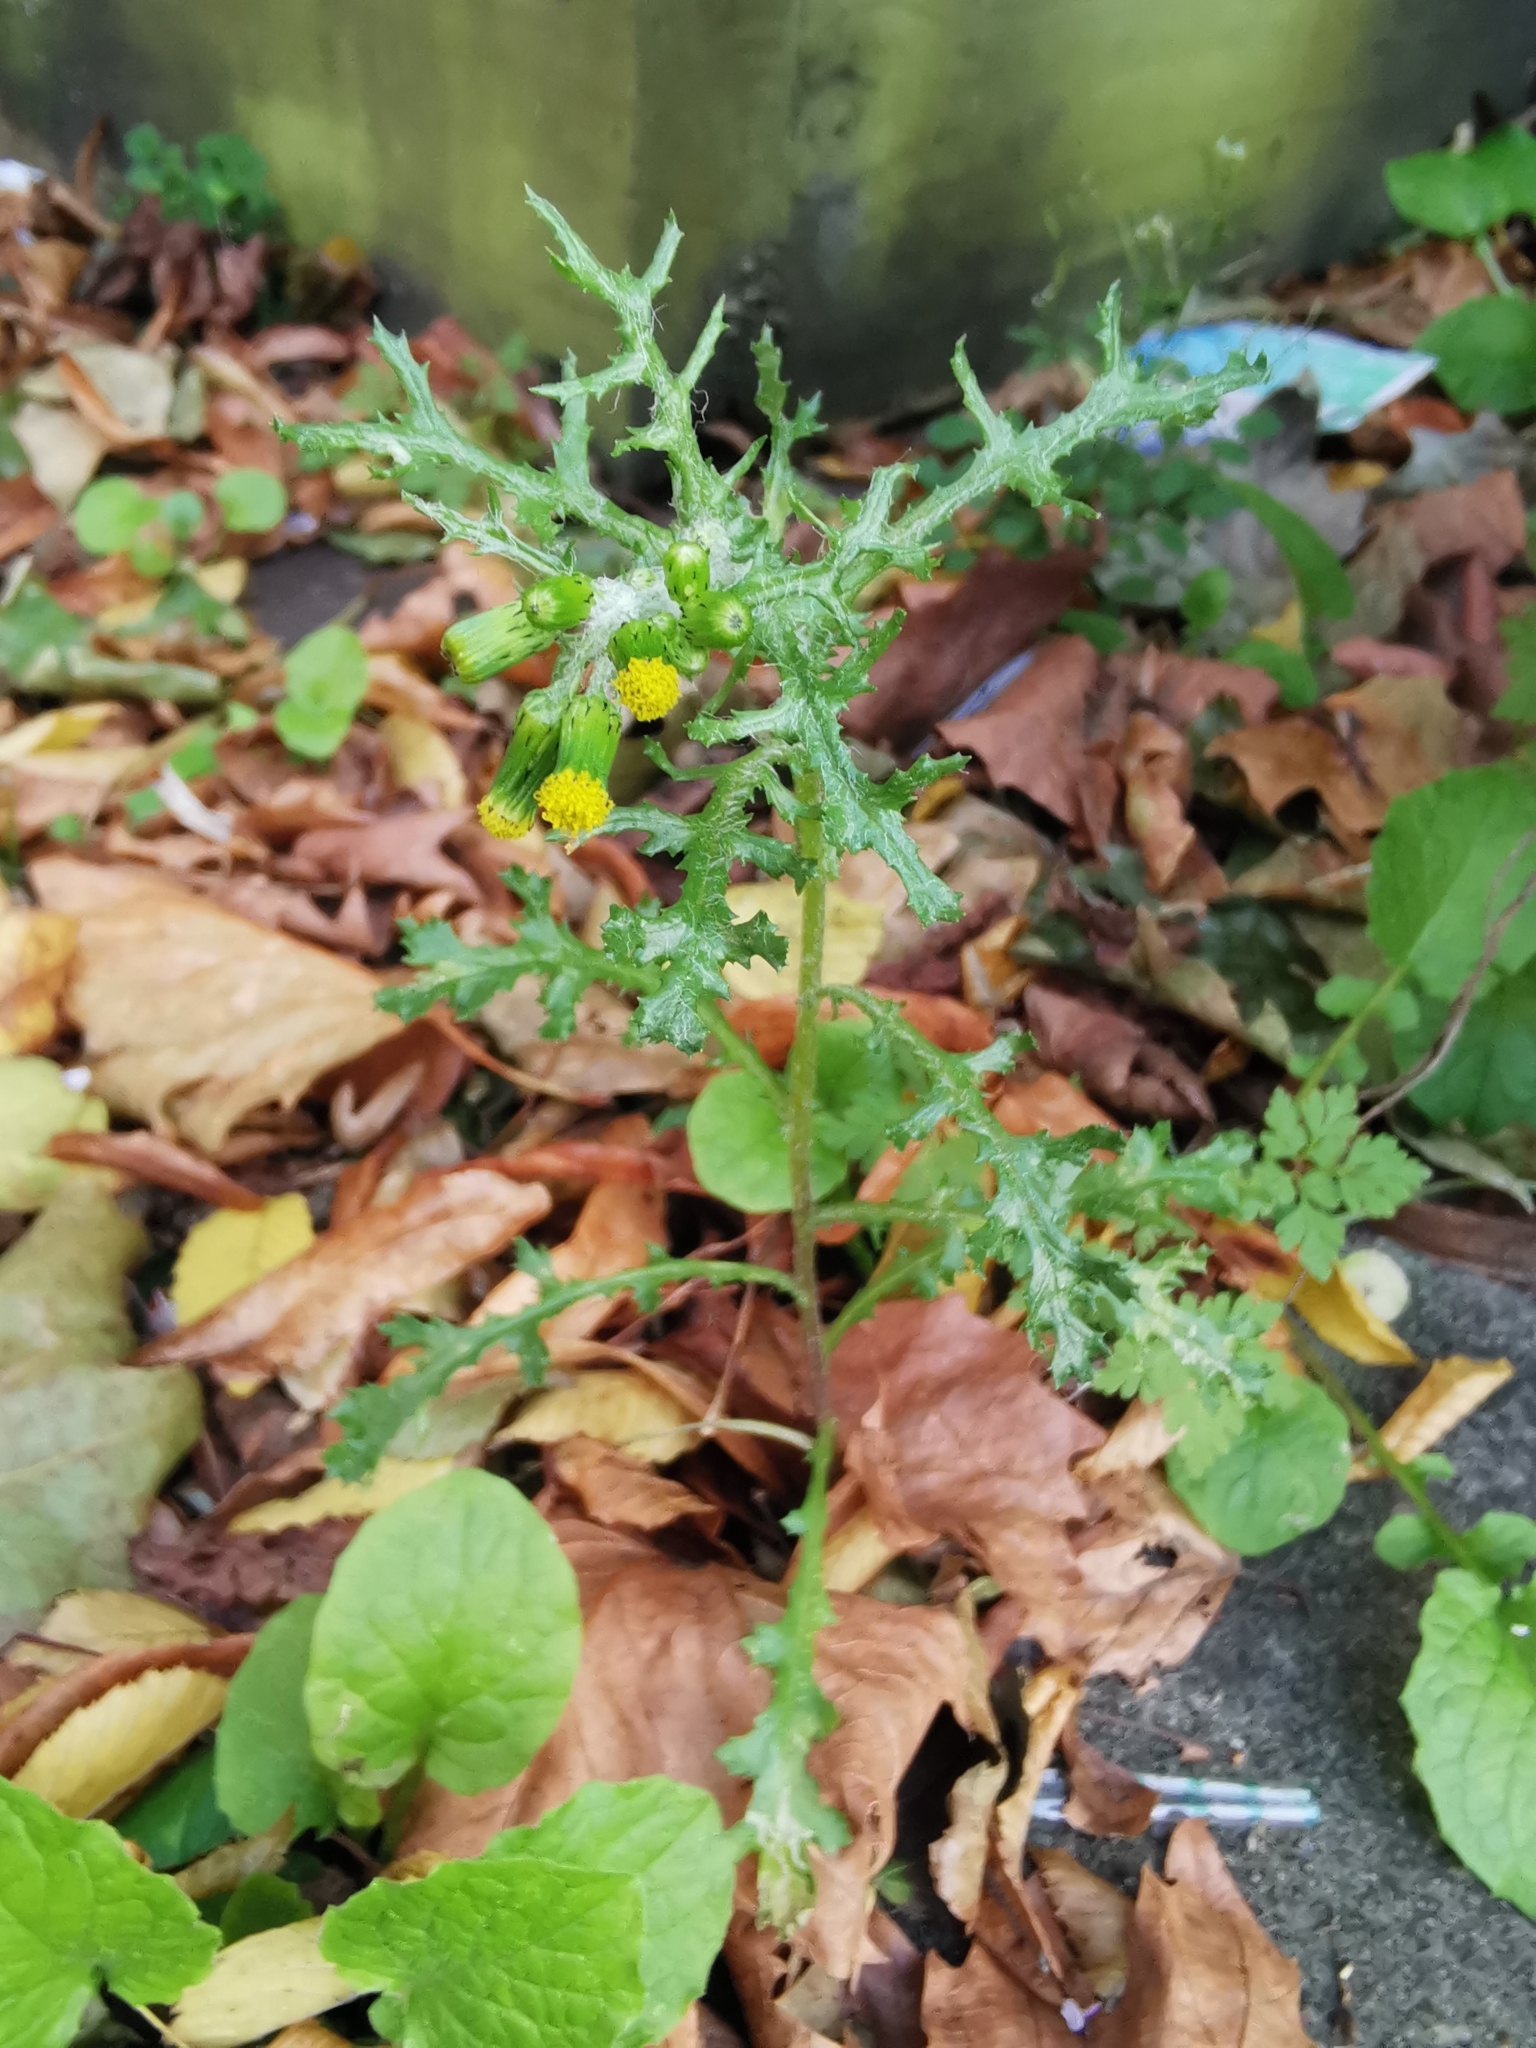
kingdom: Plantae
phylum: Tracheophyta
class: Magnoliopsida
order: Asterales
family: Asteraceae
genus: Senecio
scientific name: Senecio vulgaris
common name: Old-man-in-the-spring
